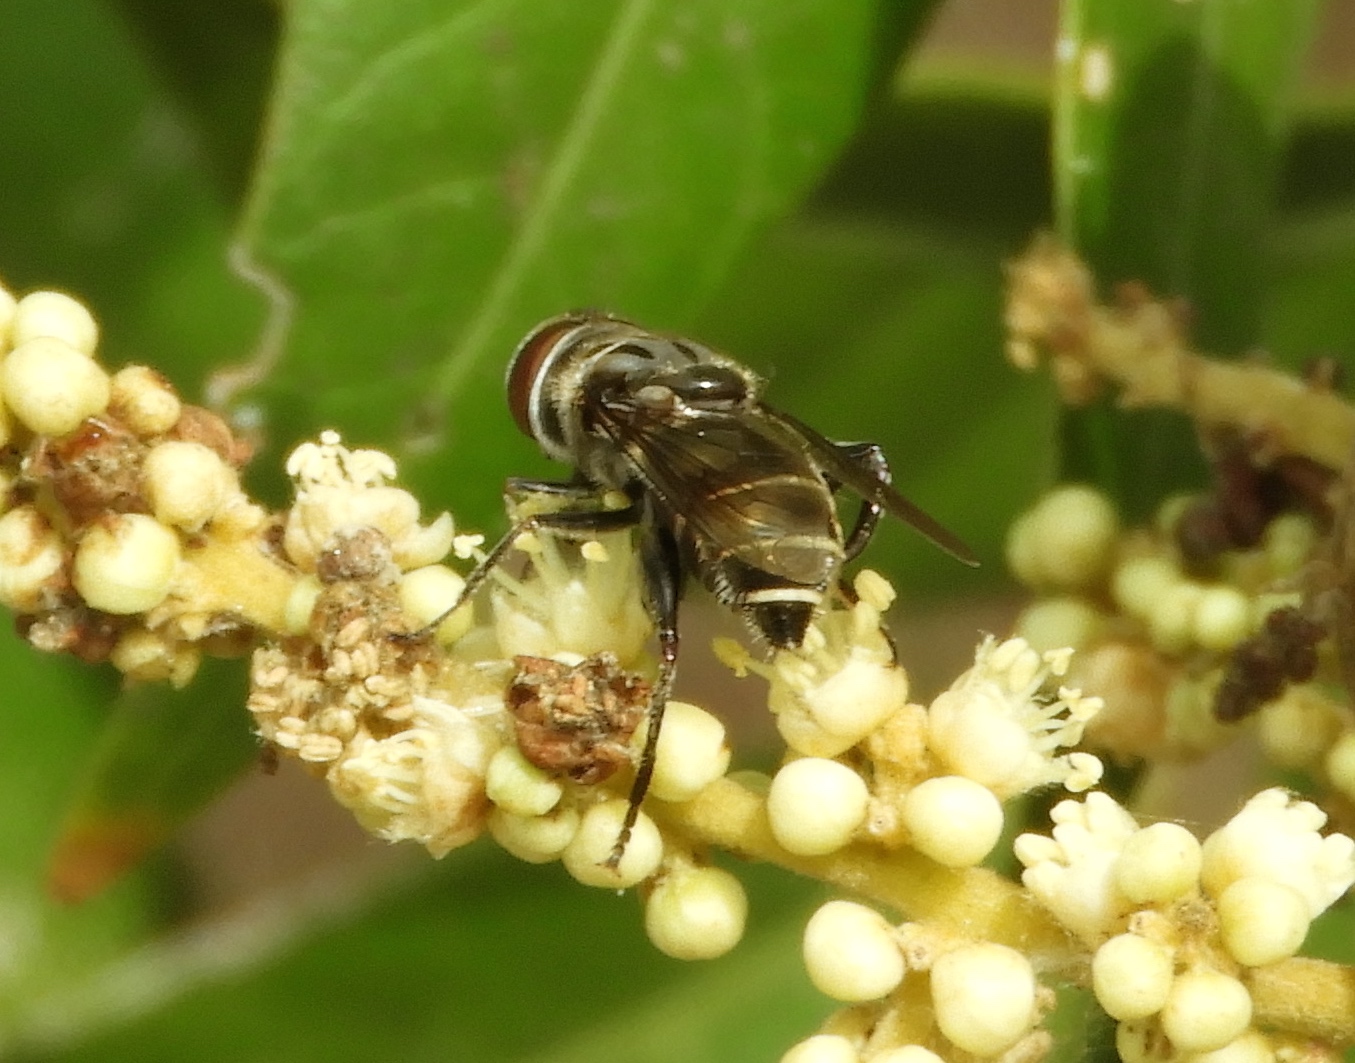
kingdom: Animalia
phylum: Arthropoda
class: Insecta
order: Diptera
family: Syrphidae
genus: Palpada
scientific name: Palpada furcata
